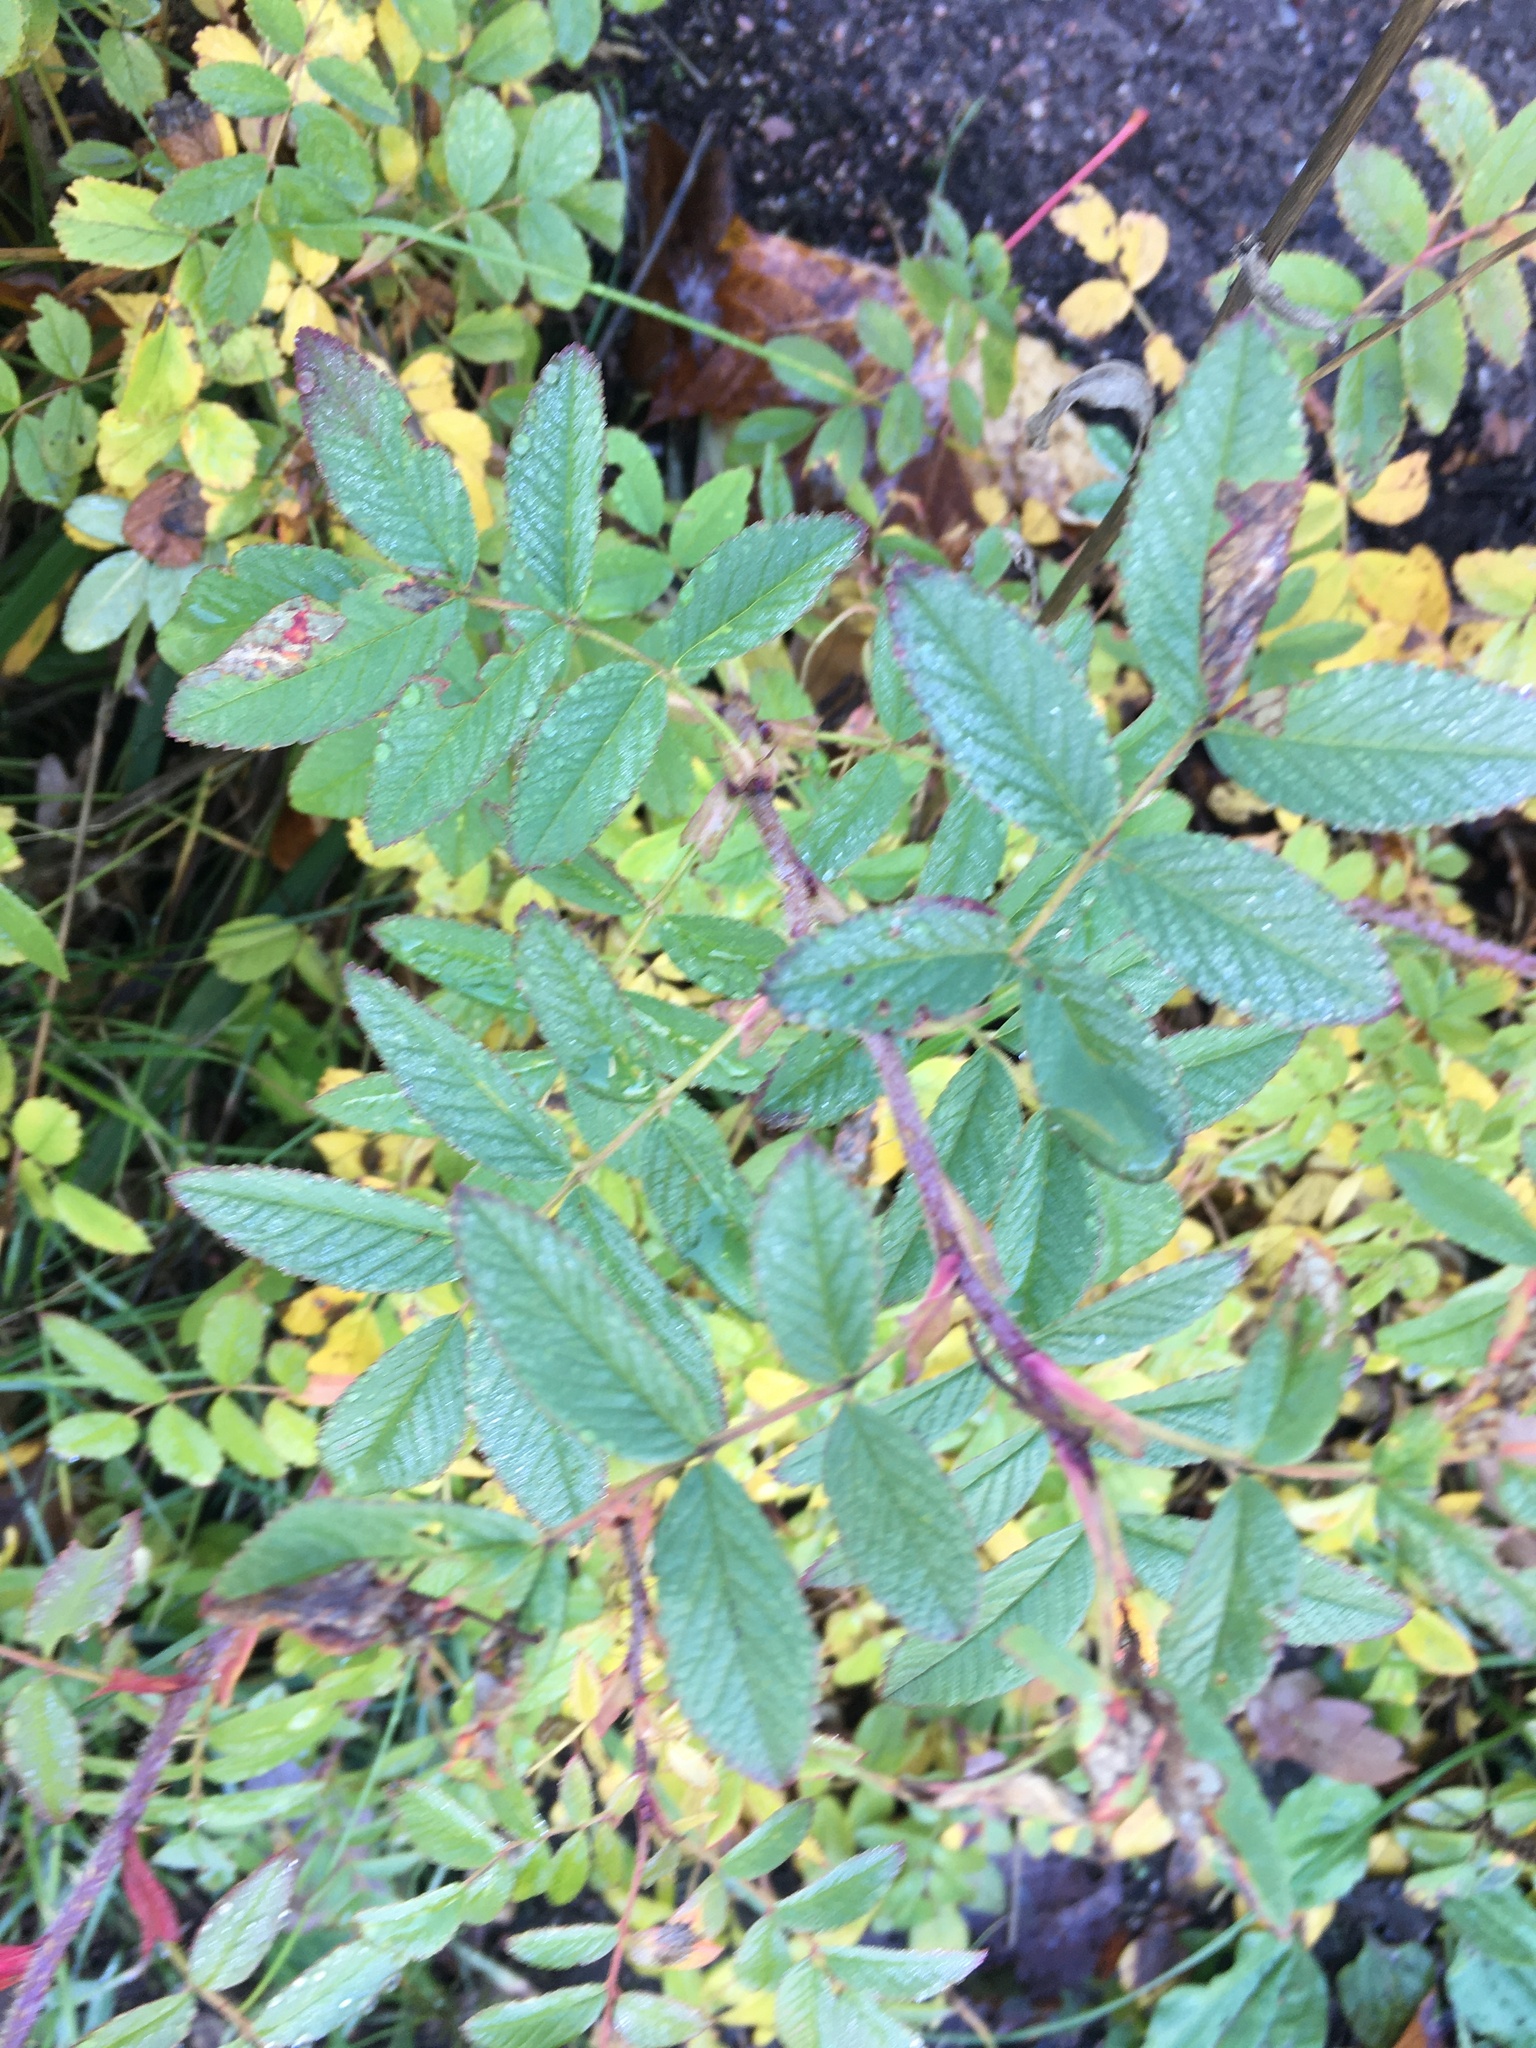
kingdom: Plantae
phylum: Tracheophyta
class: Magnoliopsida
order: Rosales
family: Rosaceae
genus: Rosa
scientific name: Rosa rugosa
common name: Japanese rose
